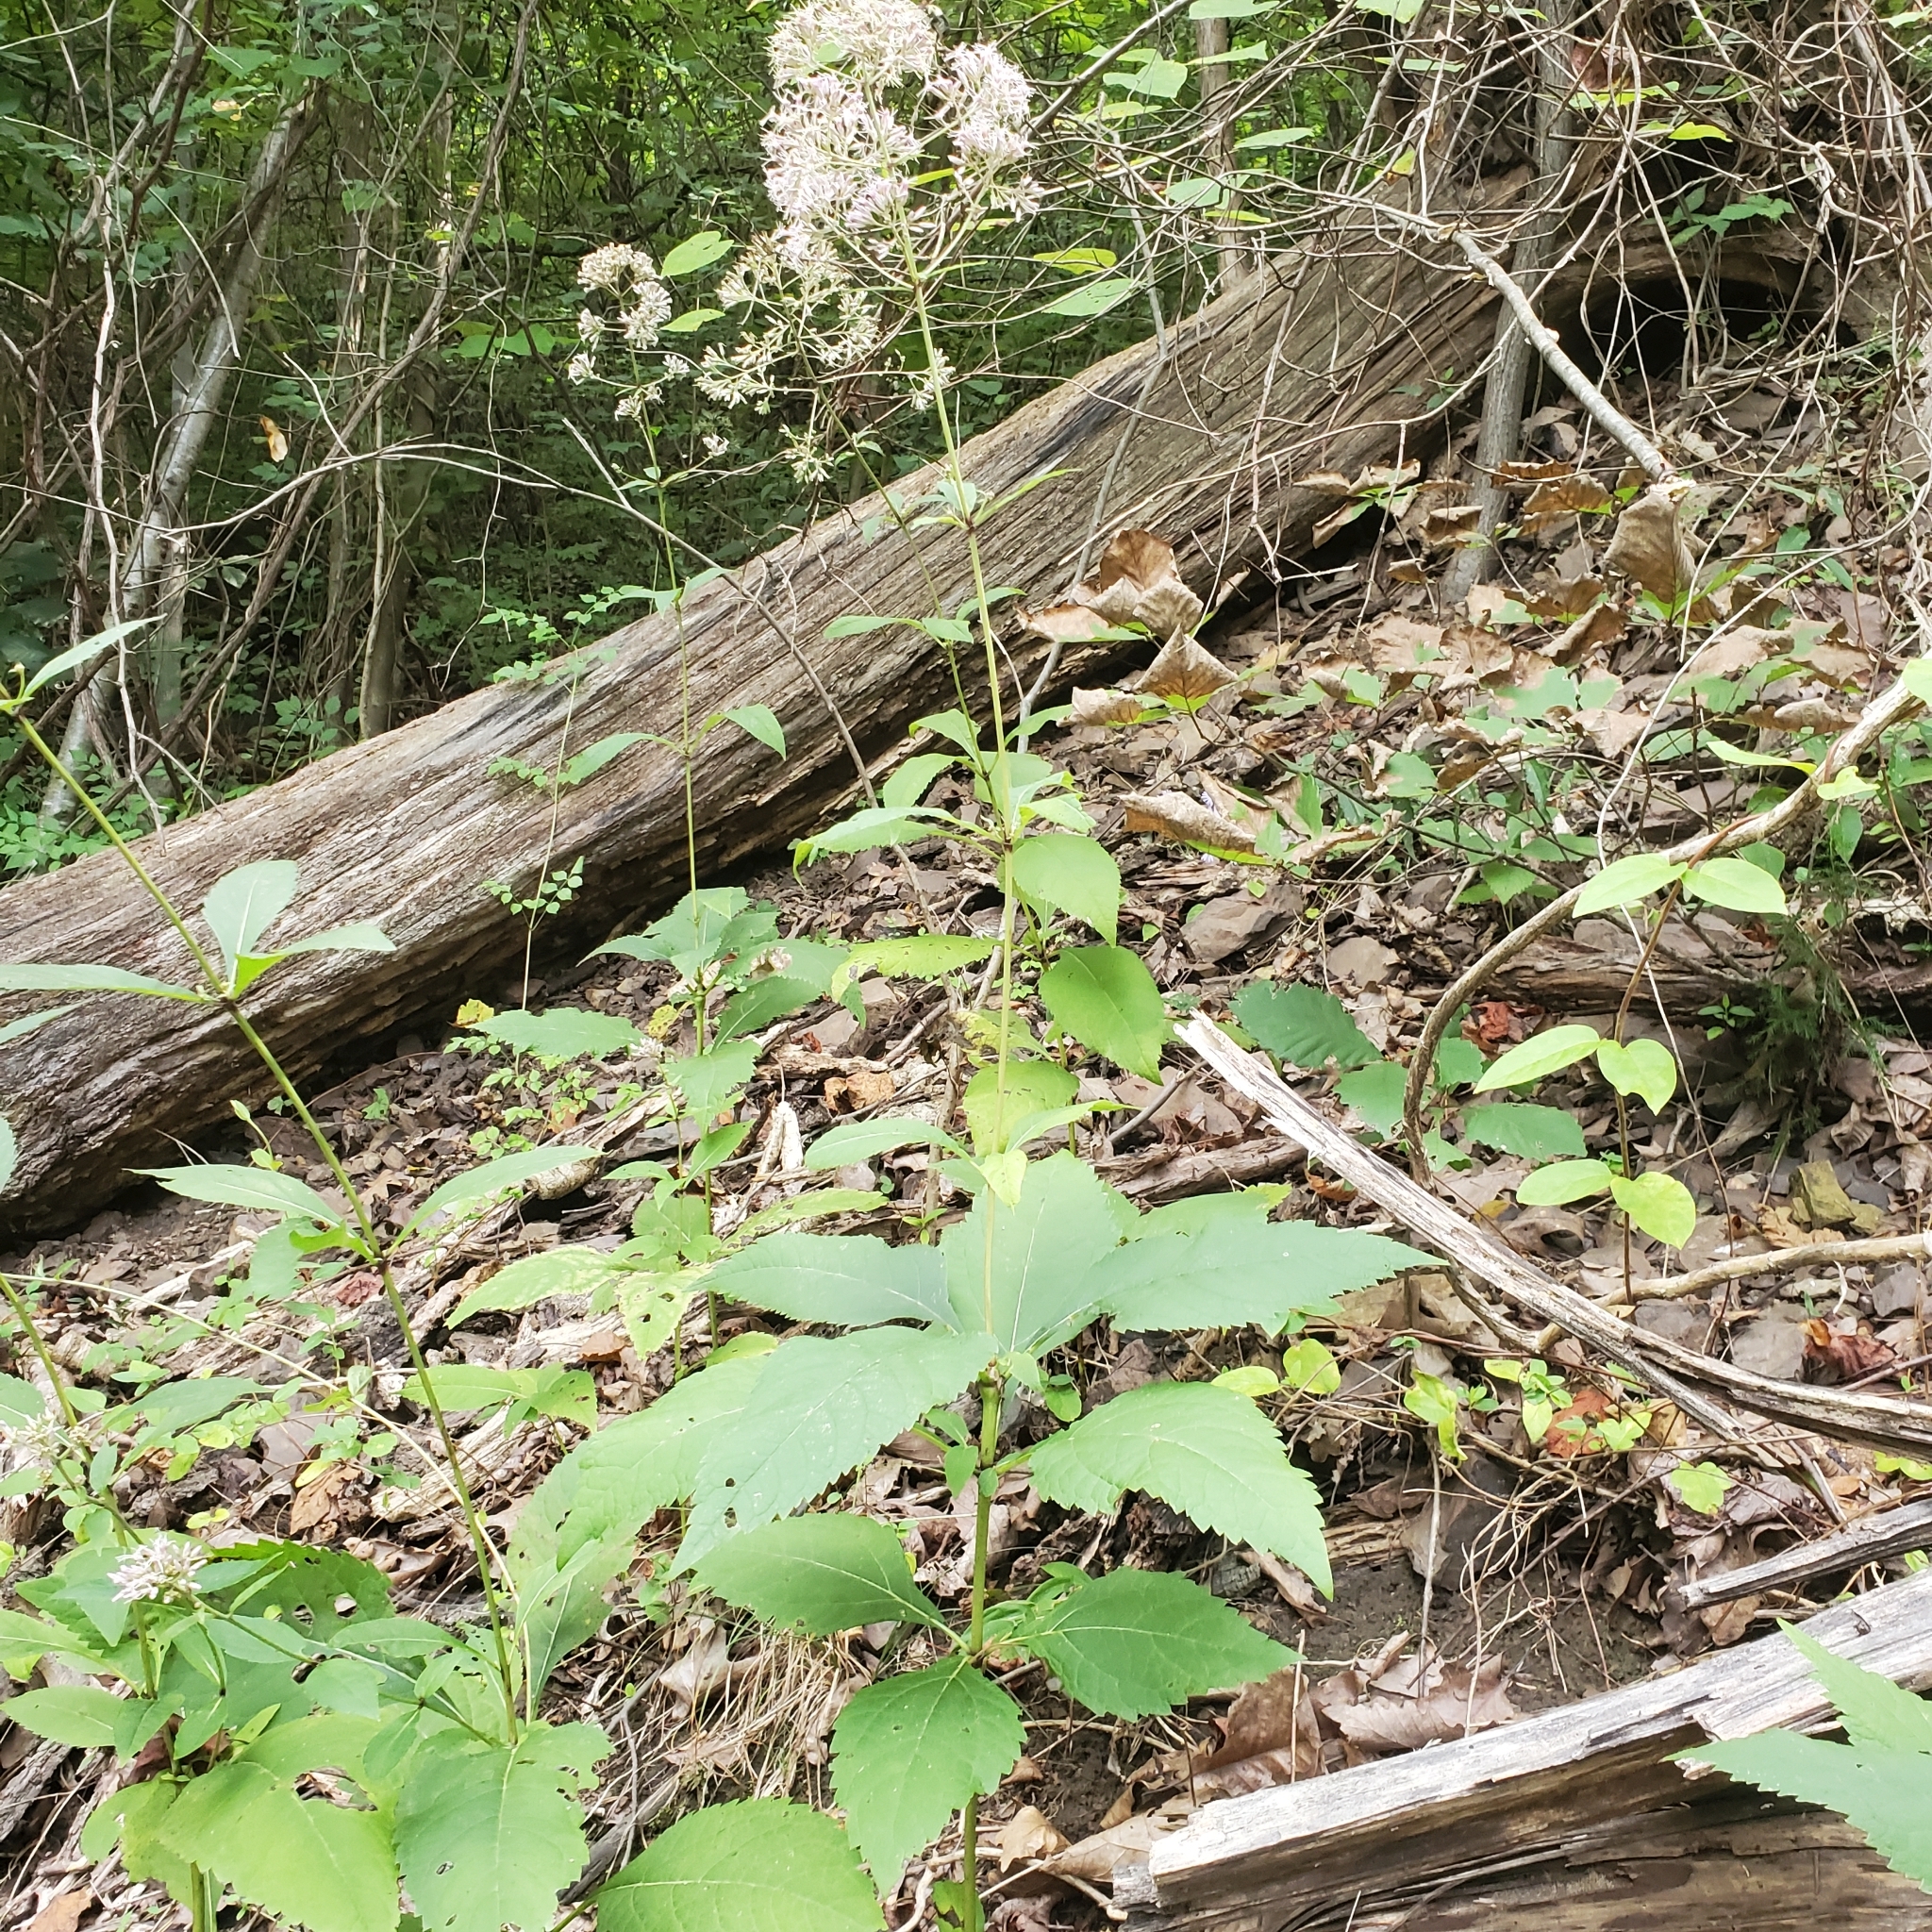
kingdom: Plantae
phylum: Tracheophyta
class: Magnoliopsida
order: Asterales
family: Asteraceae
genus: Eutrochium
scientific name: Eutrochium purpureum
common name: Gravelroot
